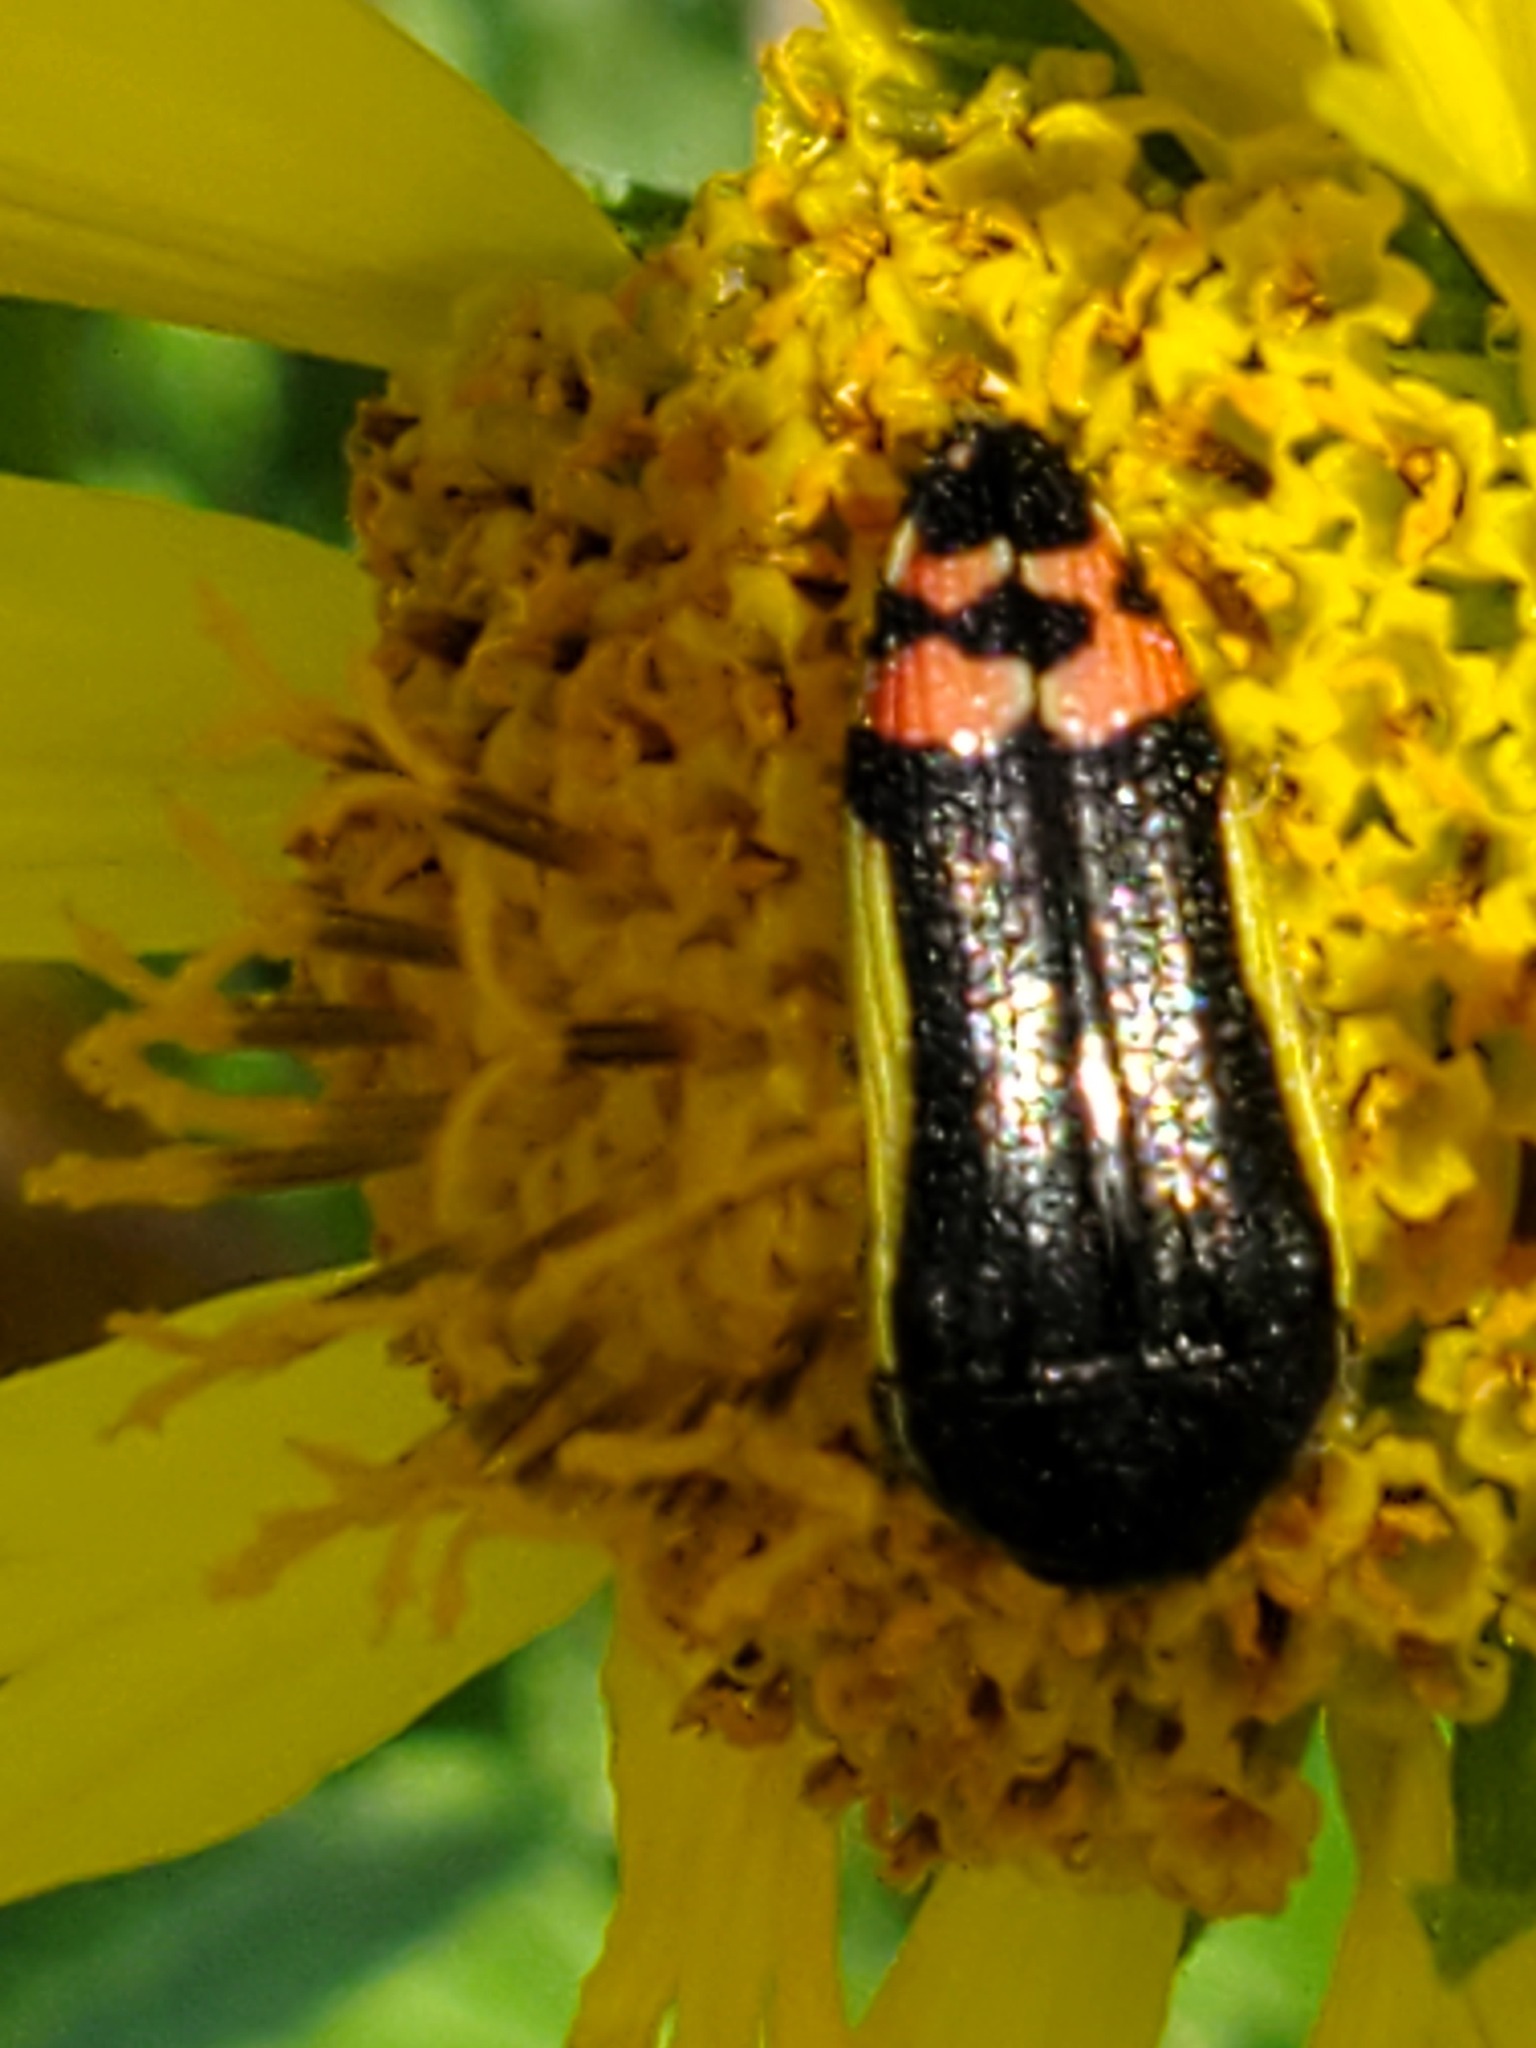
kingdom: Animalia
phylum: Arthropoda
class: Insecta
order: Coleoptera
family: Buprestidae
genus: Acmaeodera
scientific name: Acmaeodera flavomarginata
